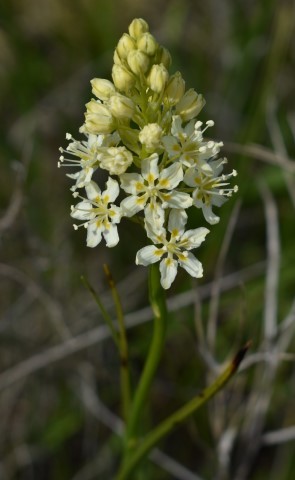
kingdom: Plantae
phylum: Tracheophyta
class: Liliopsida
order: Liliales
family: Melanthiaceae
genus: Toxicoscordion
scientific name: Toxicoscordion venenosum
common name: Meadow death camas
